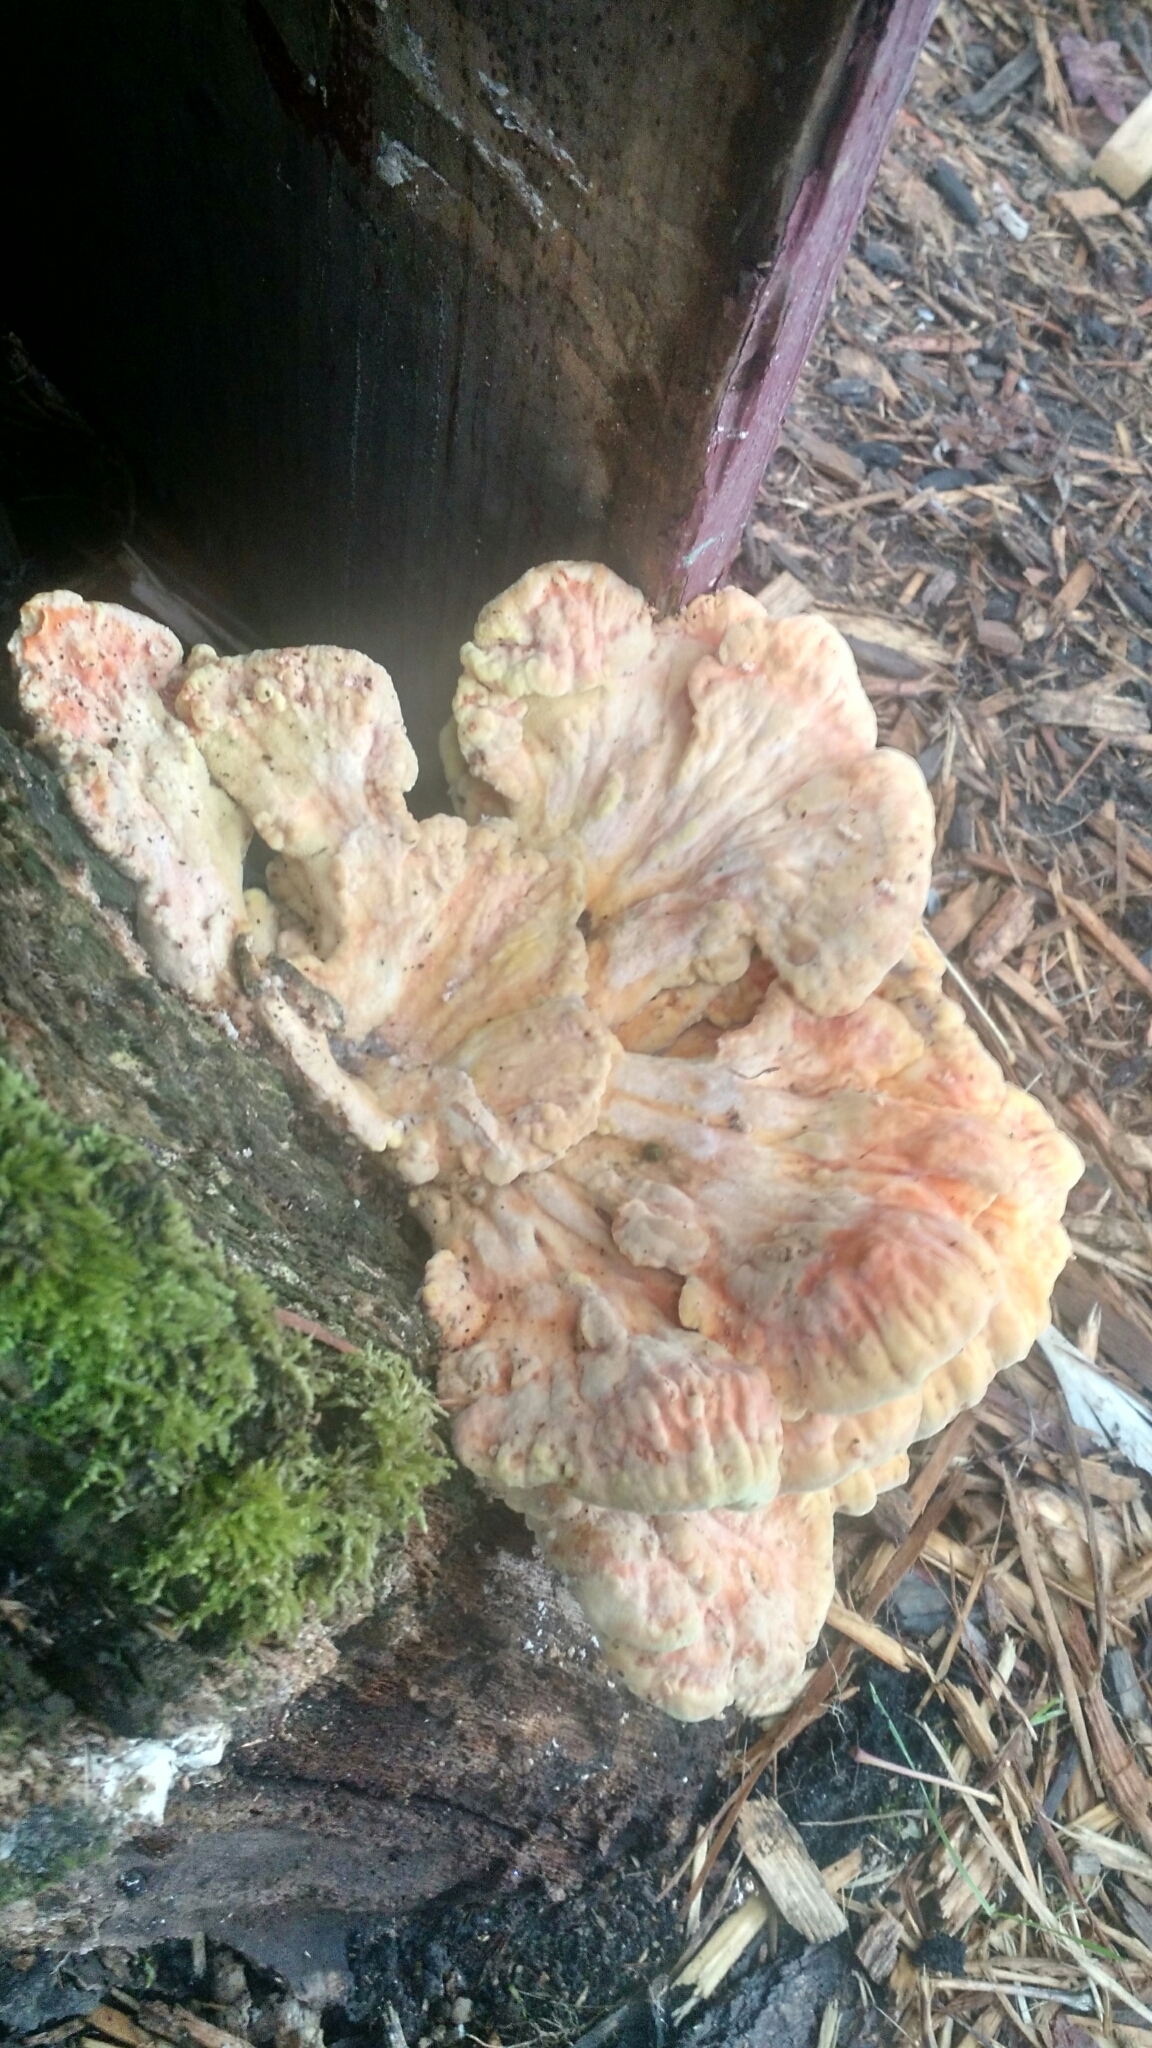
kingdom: Fungi
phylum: Basidiomycota
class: Agaricomycetes
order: Polyporales
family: Laetiporaceae
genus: Laetiporus
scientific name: Laetiporus sulphureus
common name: Chicken of the woods
